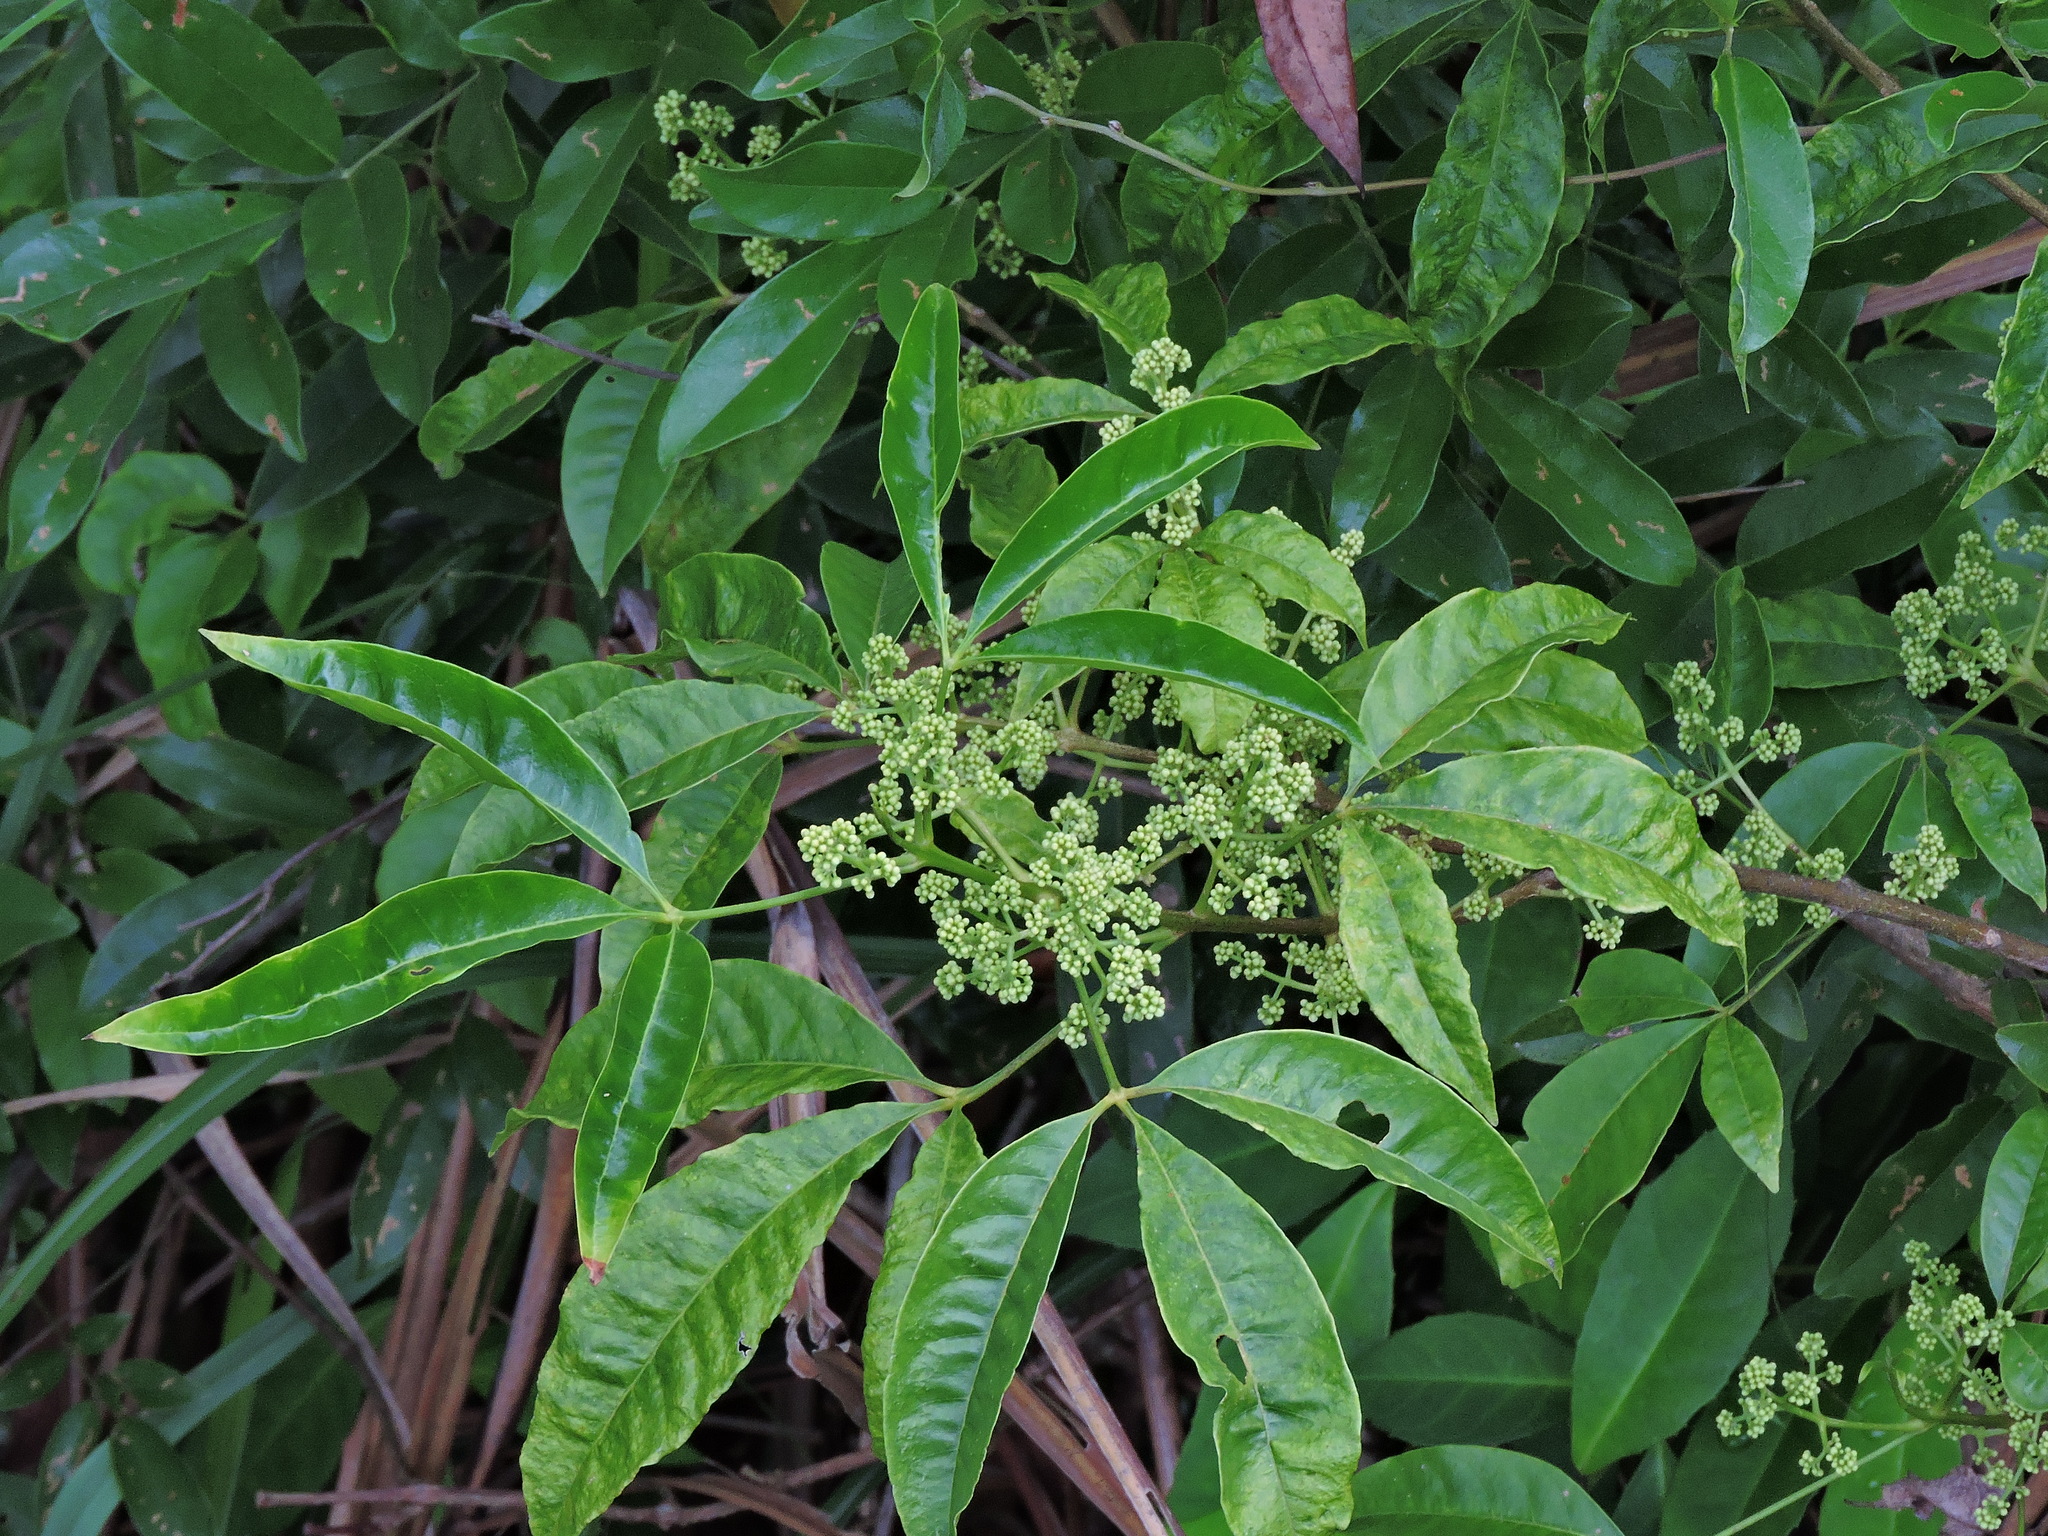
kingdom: Plantae
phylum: Tracheophyta
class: Magnoliopsida
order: Sapindales
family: Rutaceae
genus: Melicope
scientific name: Melicope pteleifolia
